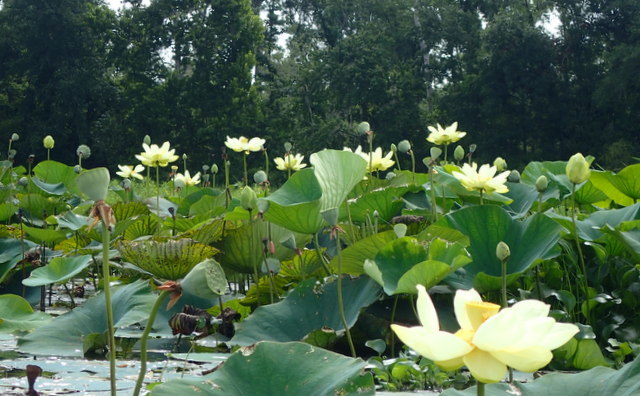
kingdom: Plantae
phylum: Tracheophyta
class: Magnoliopsida
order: Proteales
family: Nelumbonaceae
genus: Nelumbo
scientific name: Nelumbo lutea
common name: American lotus
